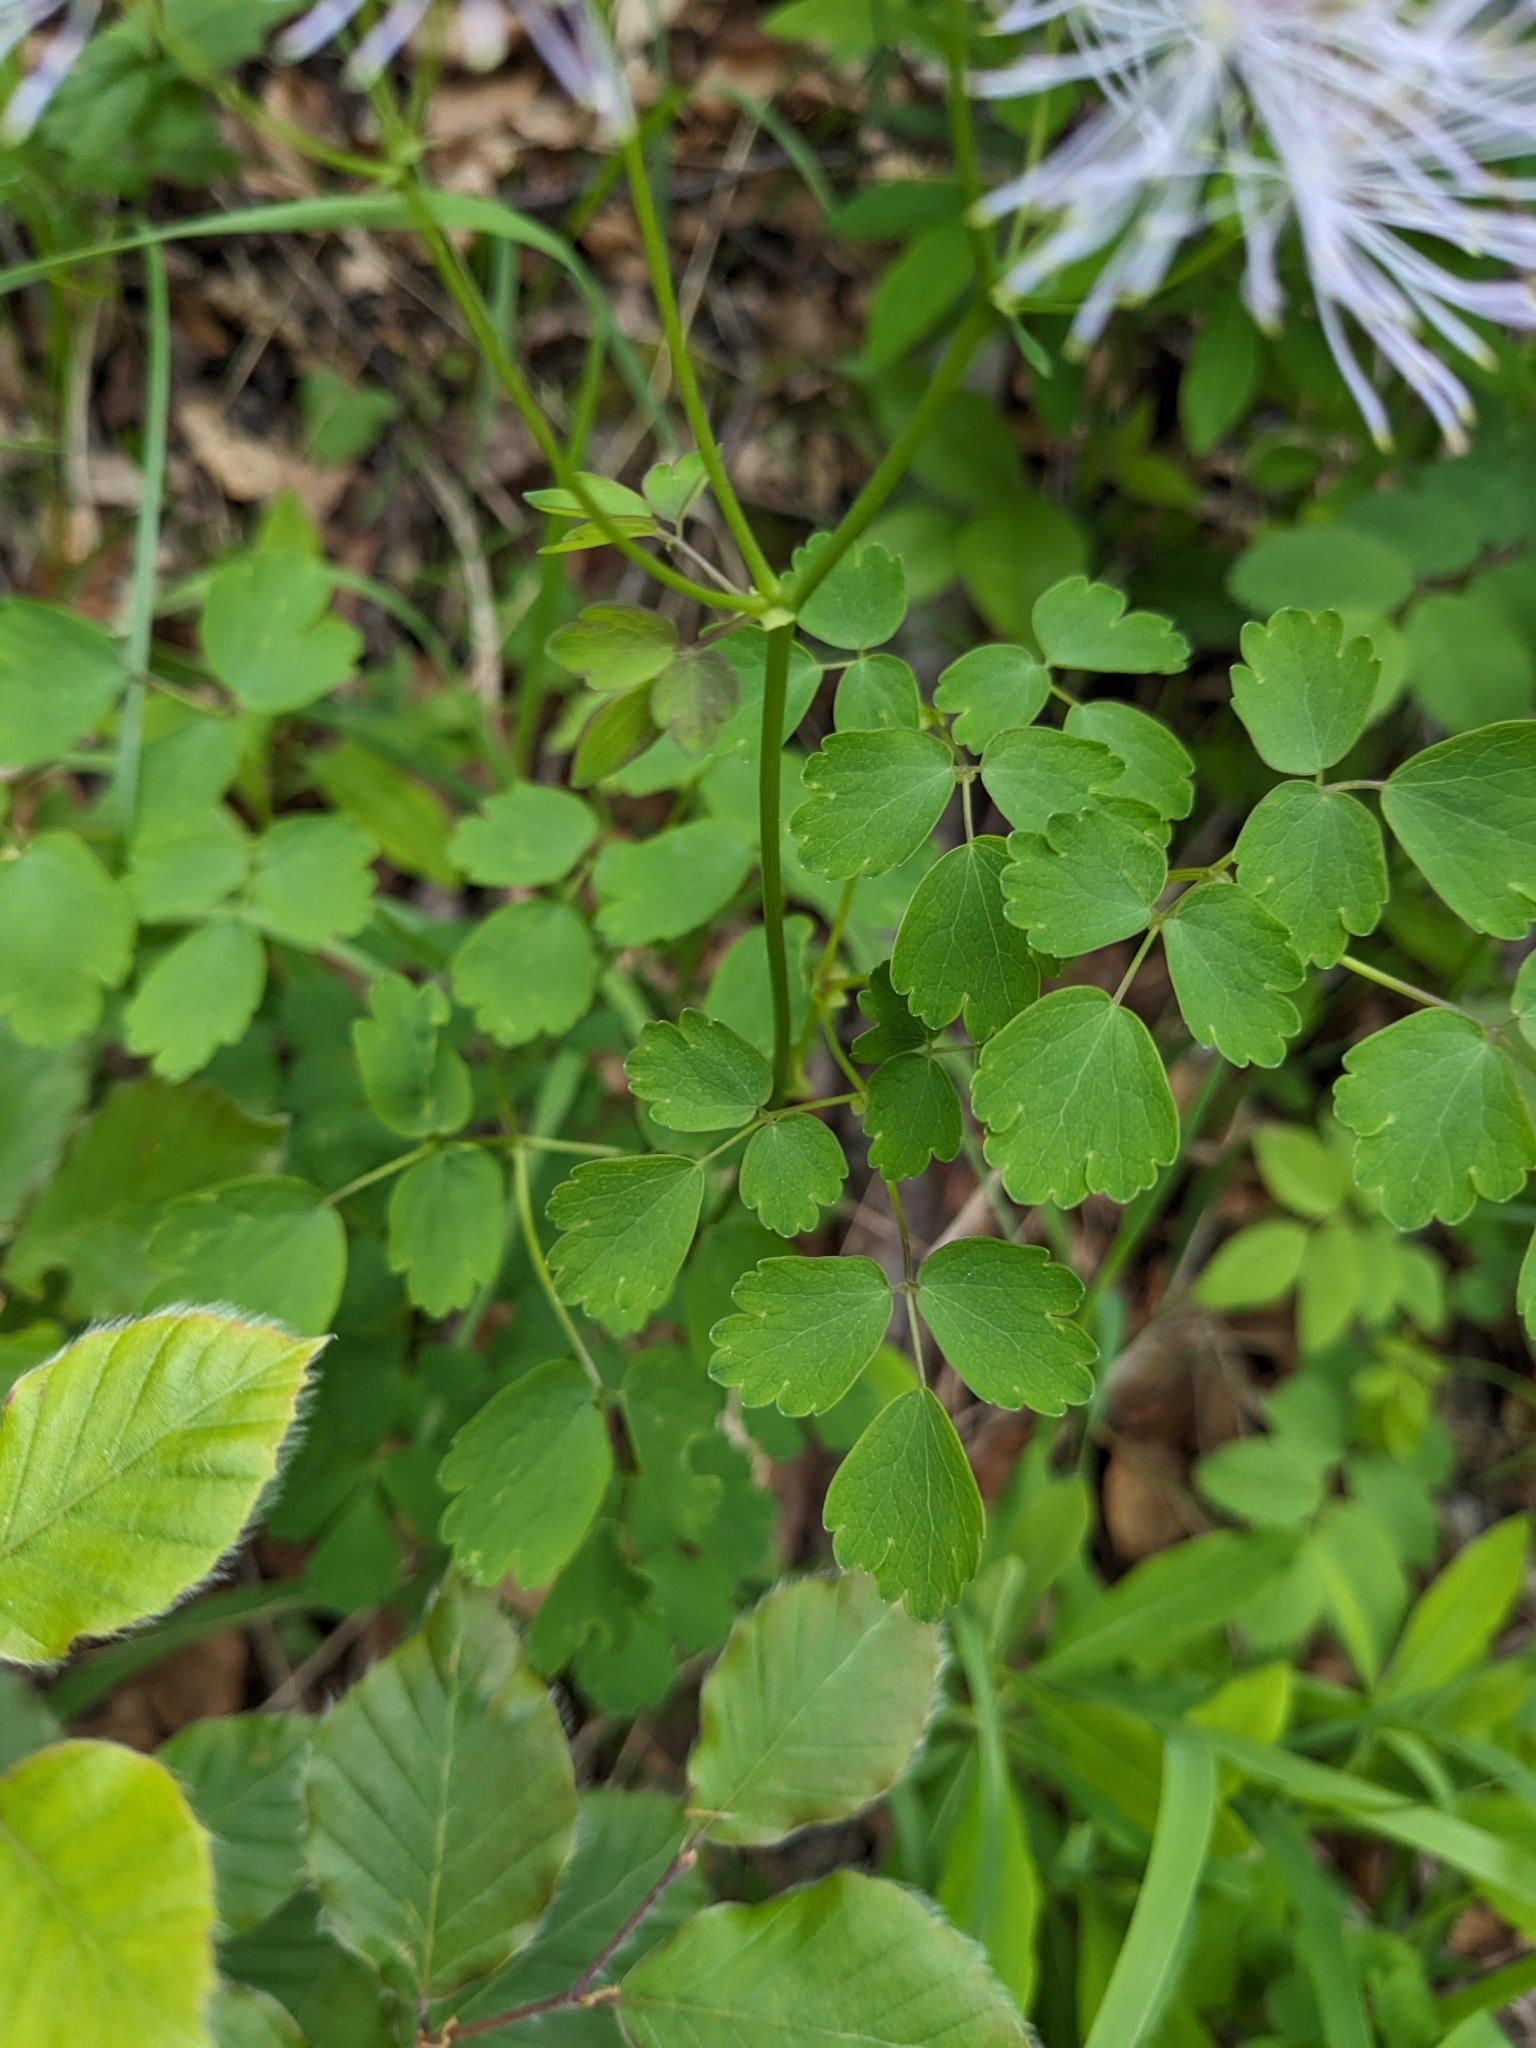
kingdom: Plantae
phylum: Tracheophyta
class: Magnoliopsida
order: Ranunculales
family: Ranunculaceae
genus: Thalictrum
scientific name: Thalictrum aquilegiifolium
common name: French meadow-rue
